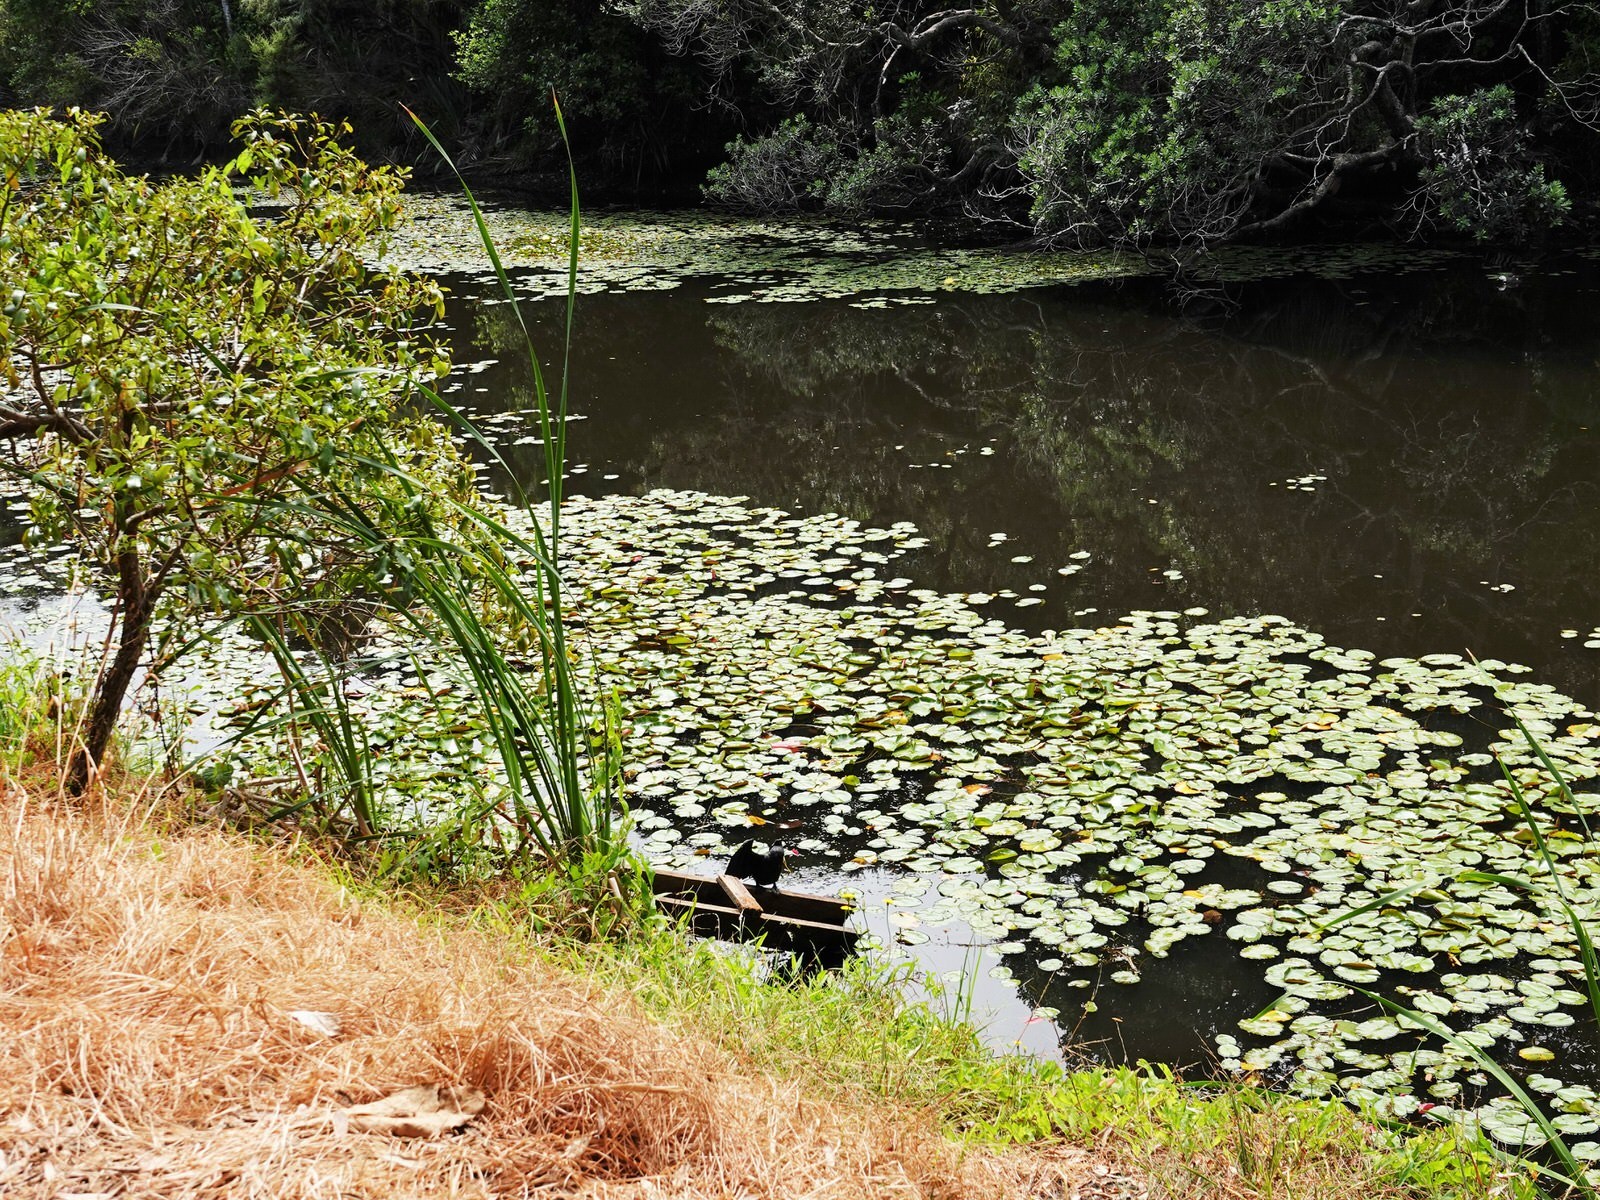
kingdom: Animalia
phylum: Chordata
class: Aves
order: Suliformes
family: Phalacrocoracidae
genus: Microcarbo
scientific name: Microcarbo melanoleucos
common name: Little pied cormorant
